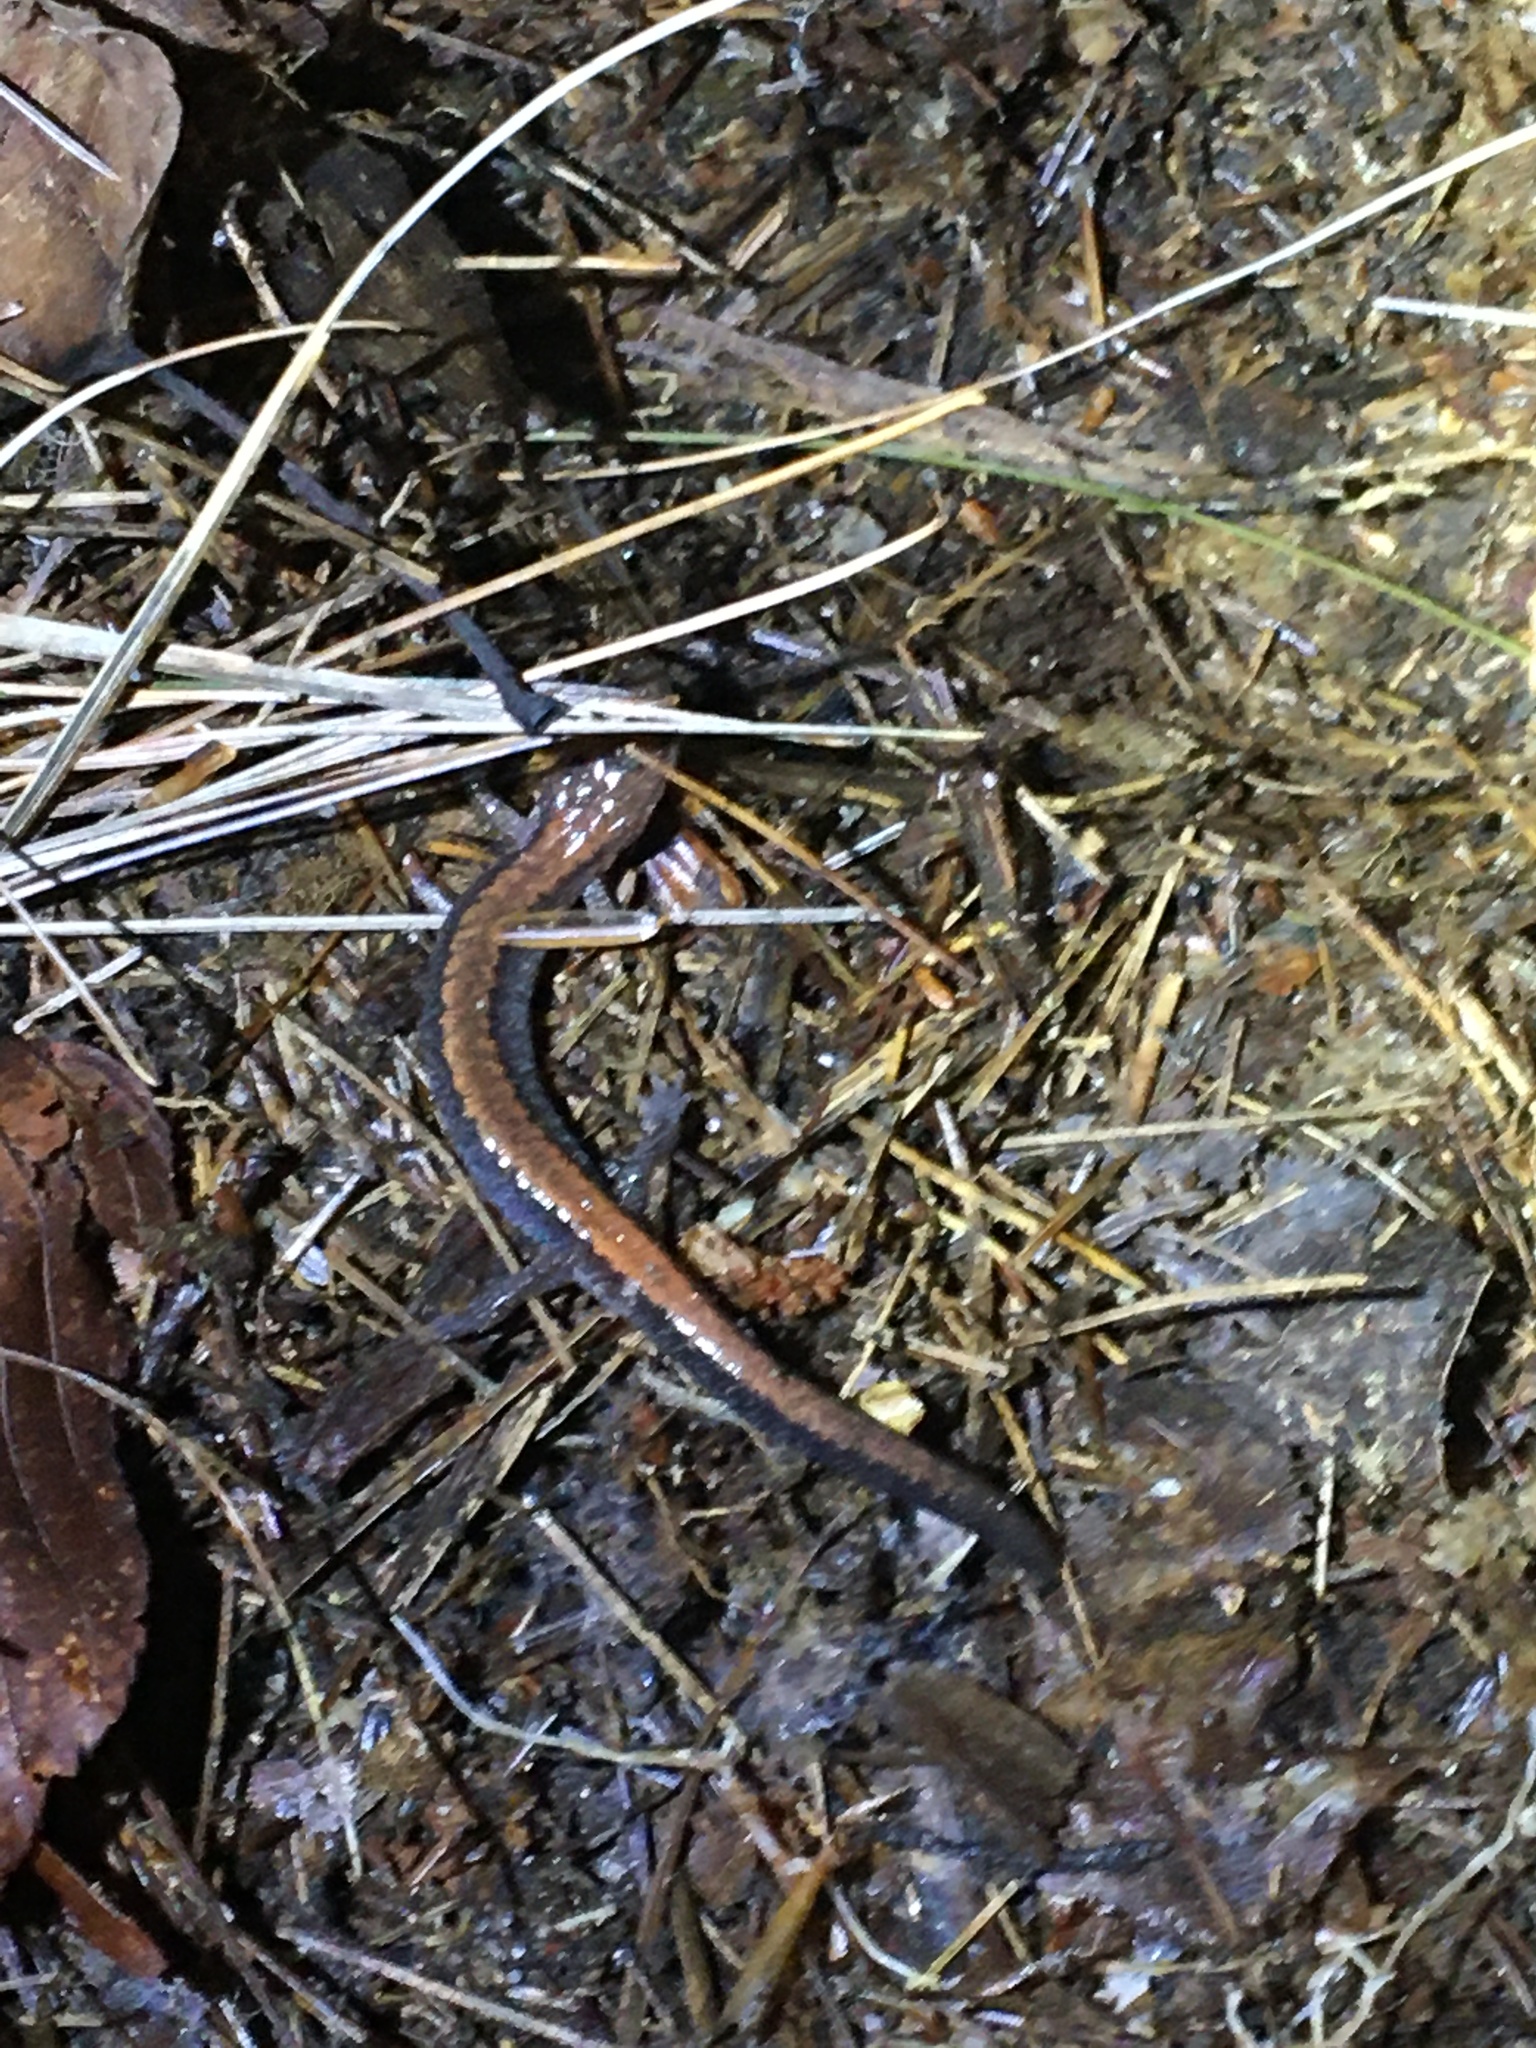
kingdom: Animalia
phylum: Chordata
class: Amphibia
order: Caudata
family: Plethodontidae
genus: Plethodon
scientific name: Plethodon cinereus
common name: Redback salamander
